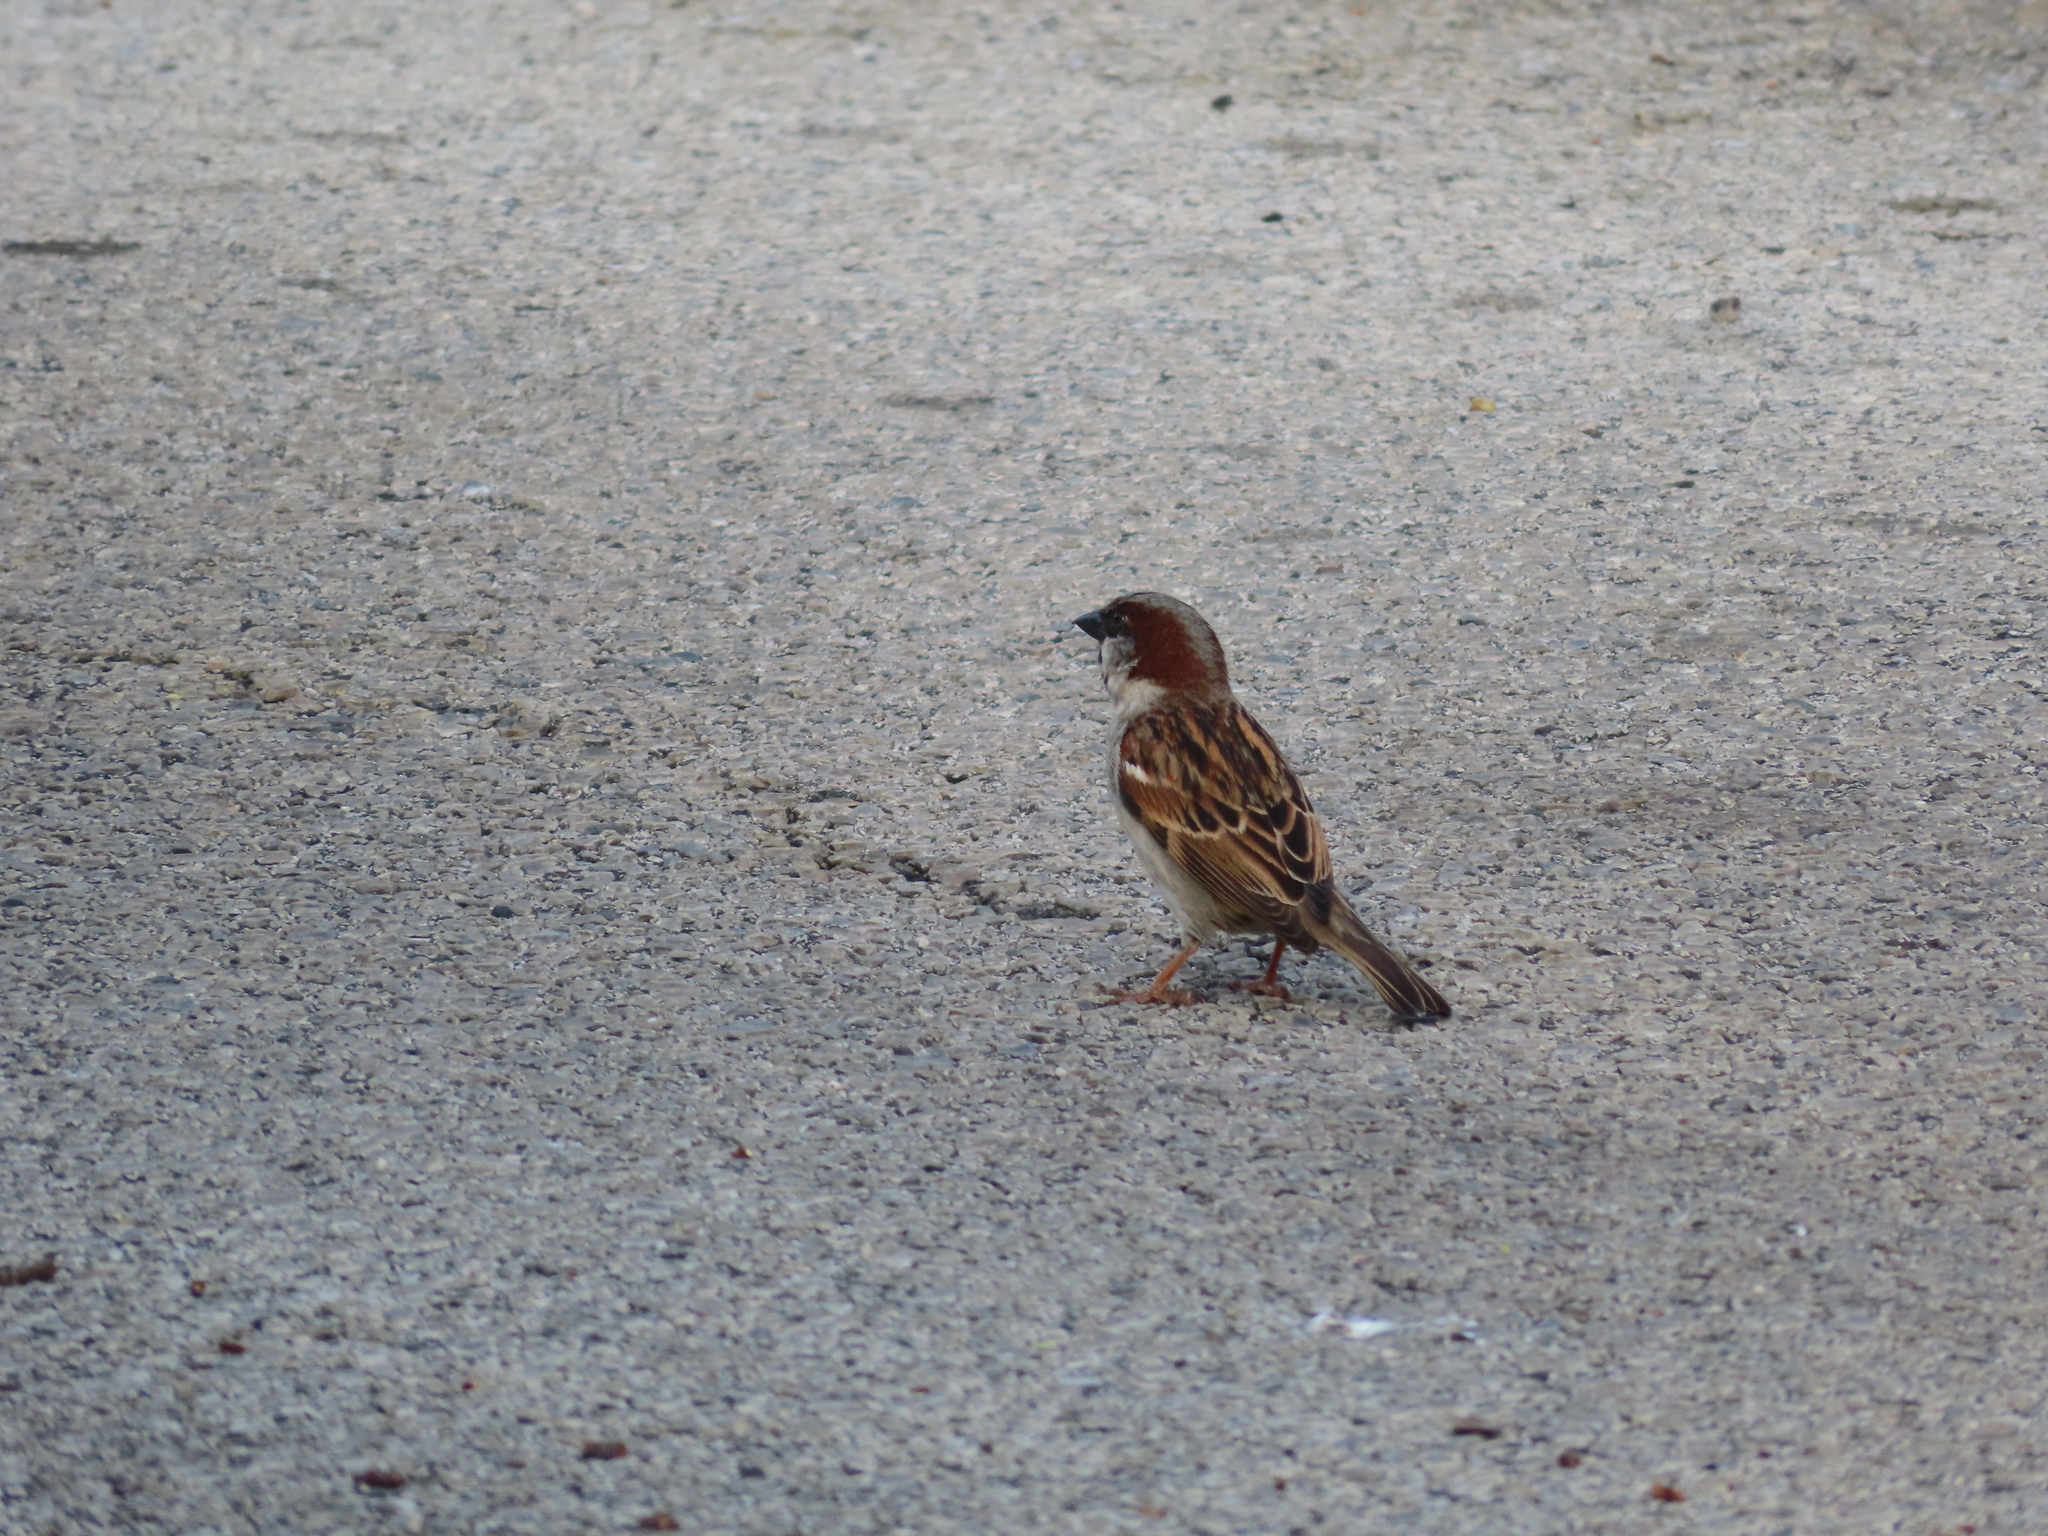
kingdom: Animalia
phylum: Chordata
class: Aves
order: Passeriformes
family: Passeridae
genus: Passer
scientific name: Passer domesticus
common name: House sparrow
